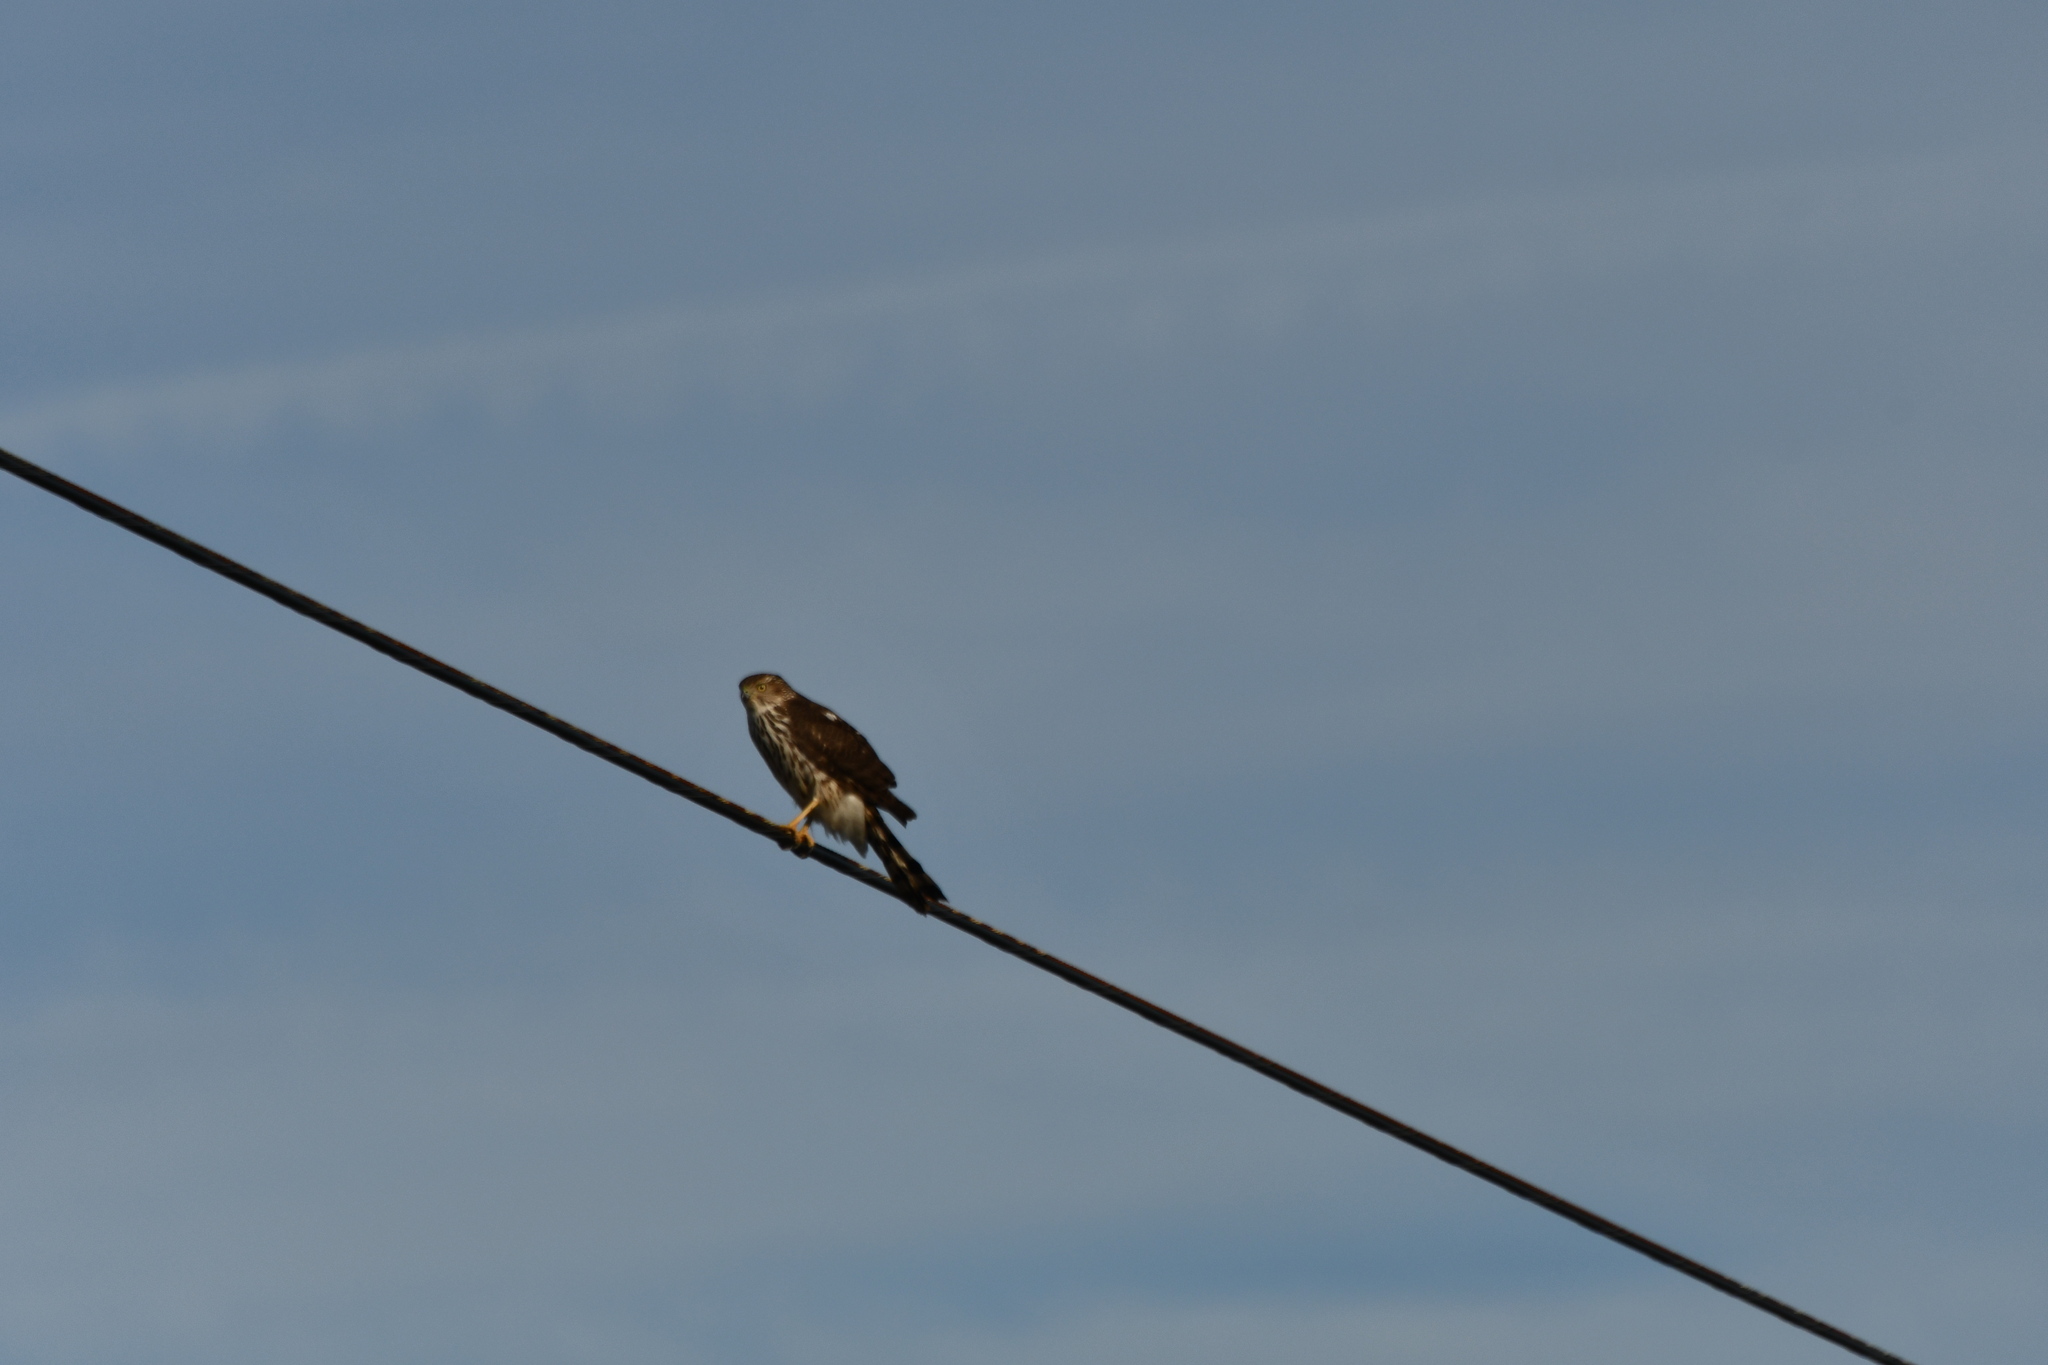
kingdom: Animalia
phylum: Chordata
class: Aves
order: Accipitriformes
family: Accipitridae
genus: Accipiter
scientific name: Accipiter cooperii
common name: Cooper's hawk
